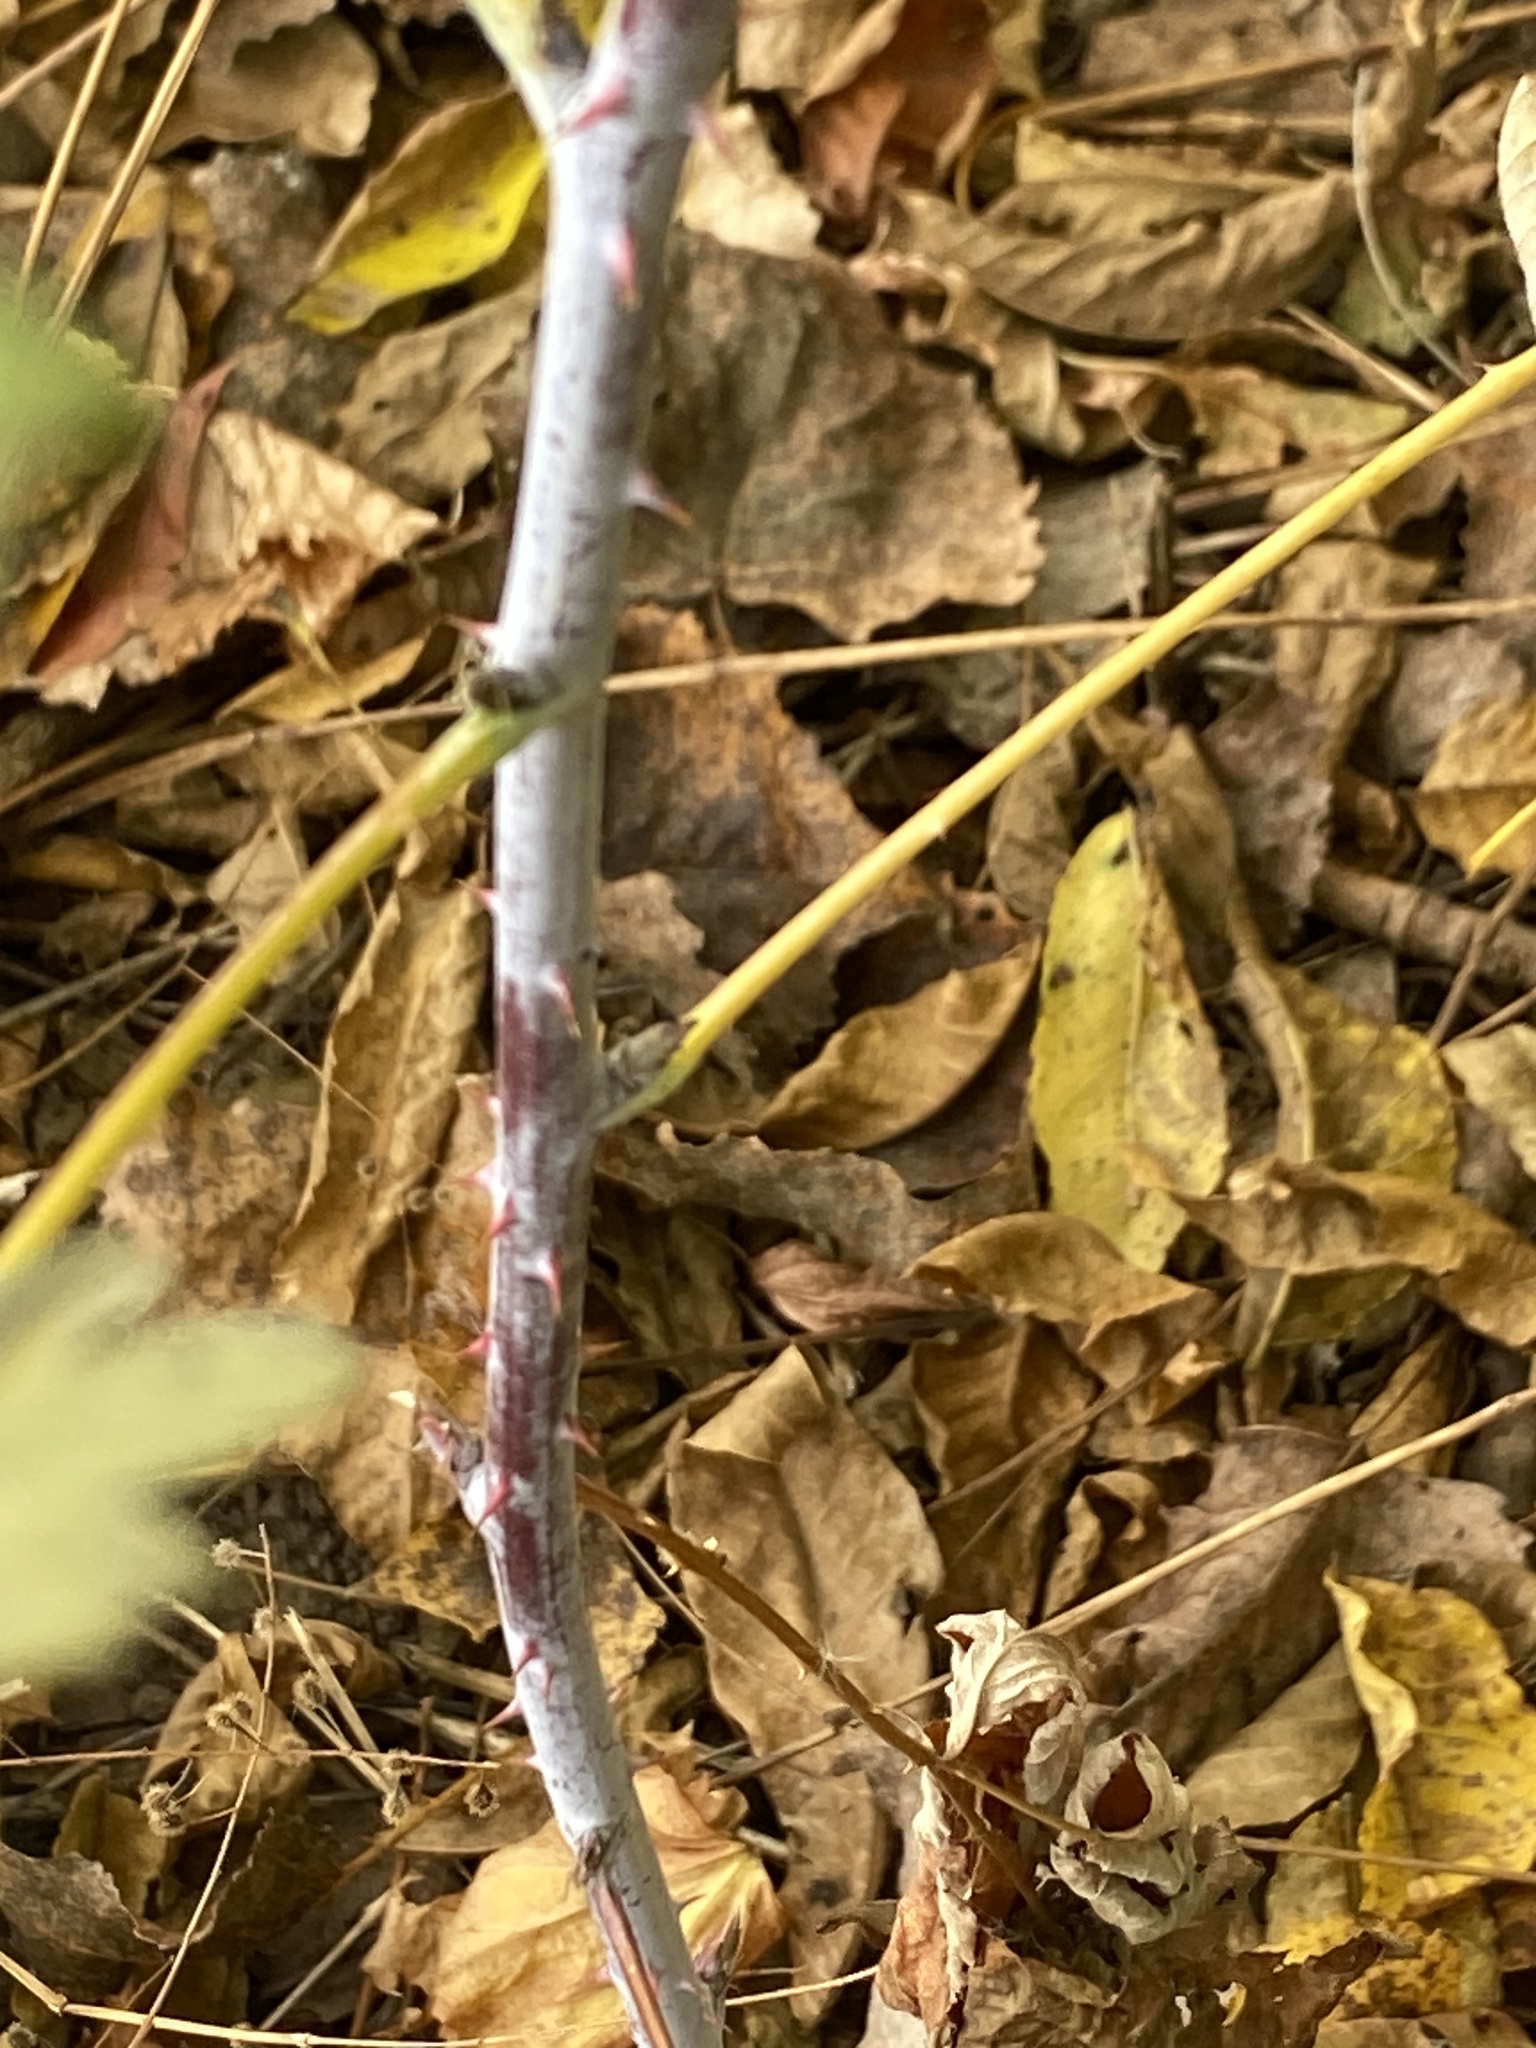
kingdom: Plantae
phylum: Tracheophyta
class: Magnoliopsida
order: Rosales
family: Rosaceae
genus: Rubus
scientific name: Rubus occidentalis
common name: Black raspberry
